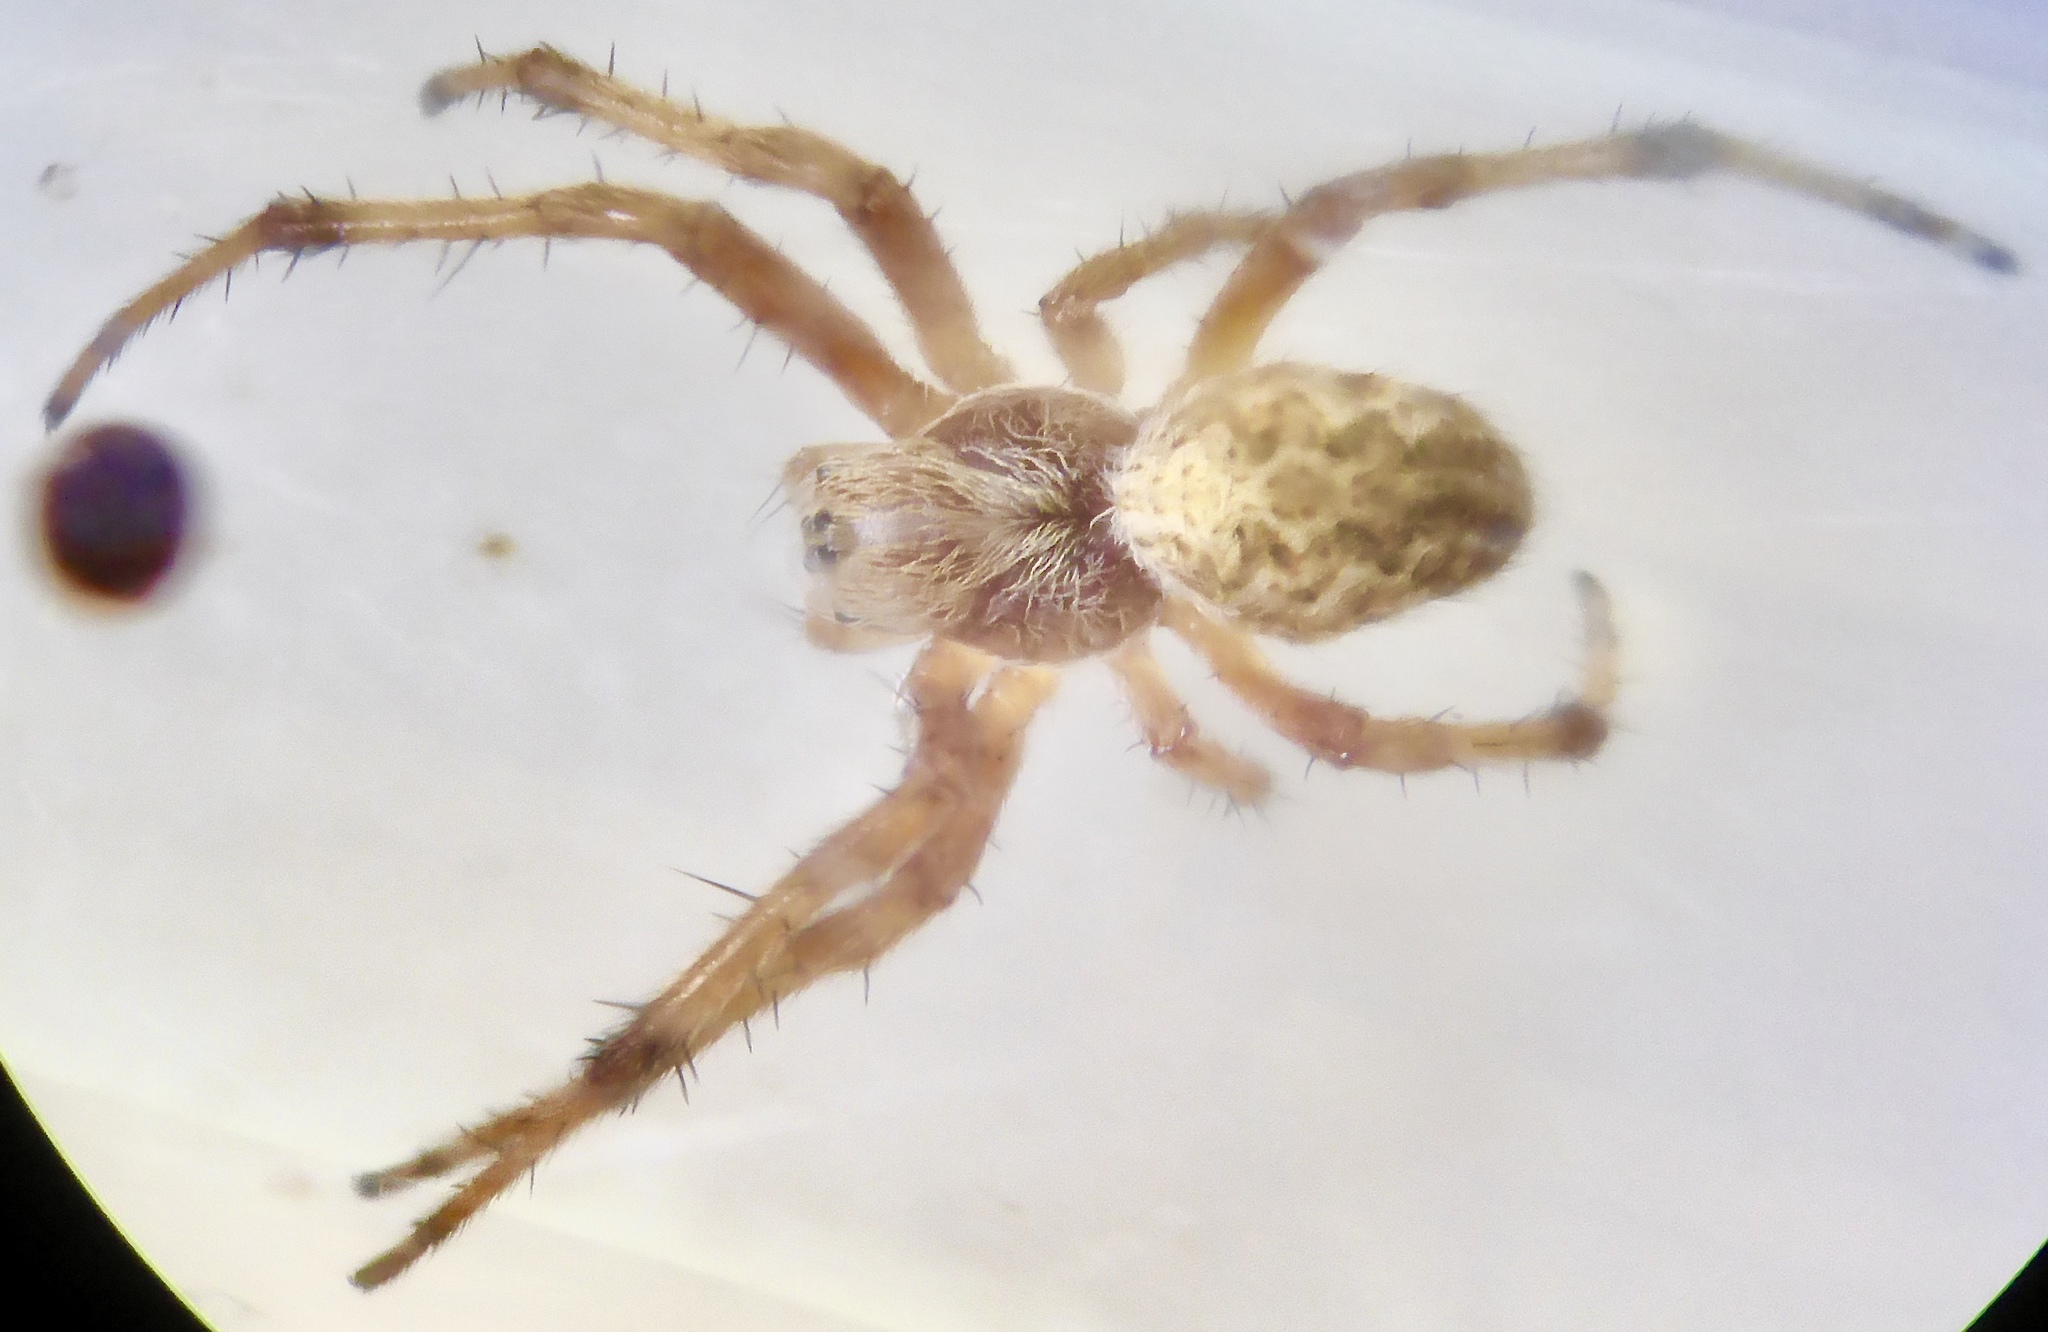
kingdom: Animalia
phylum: Arthropoda
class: Arachnida
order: Araneae
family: Araneidae
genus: Salsa
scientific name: Salsa fuliginata
